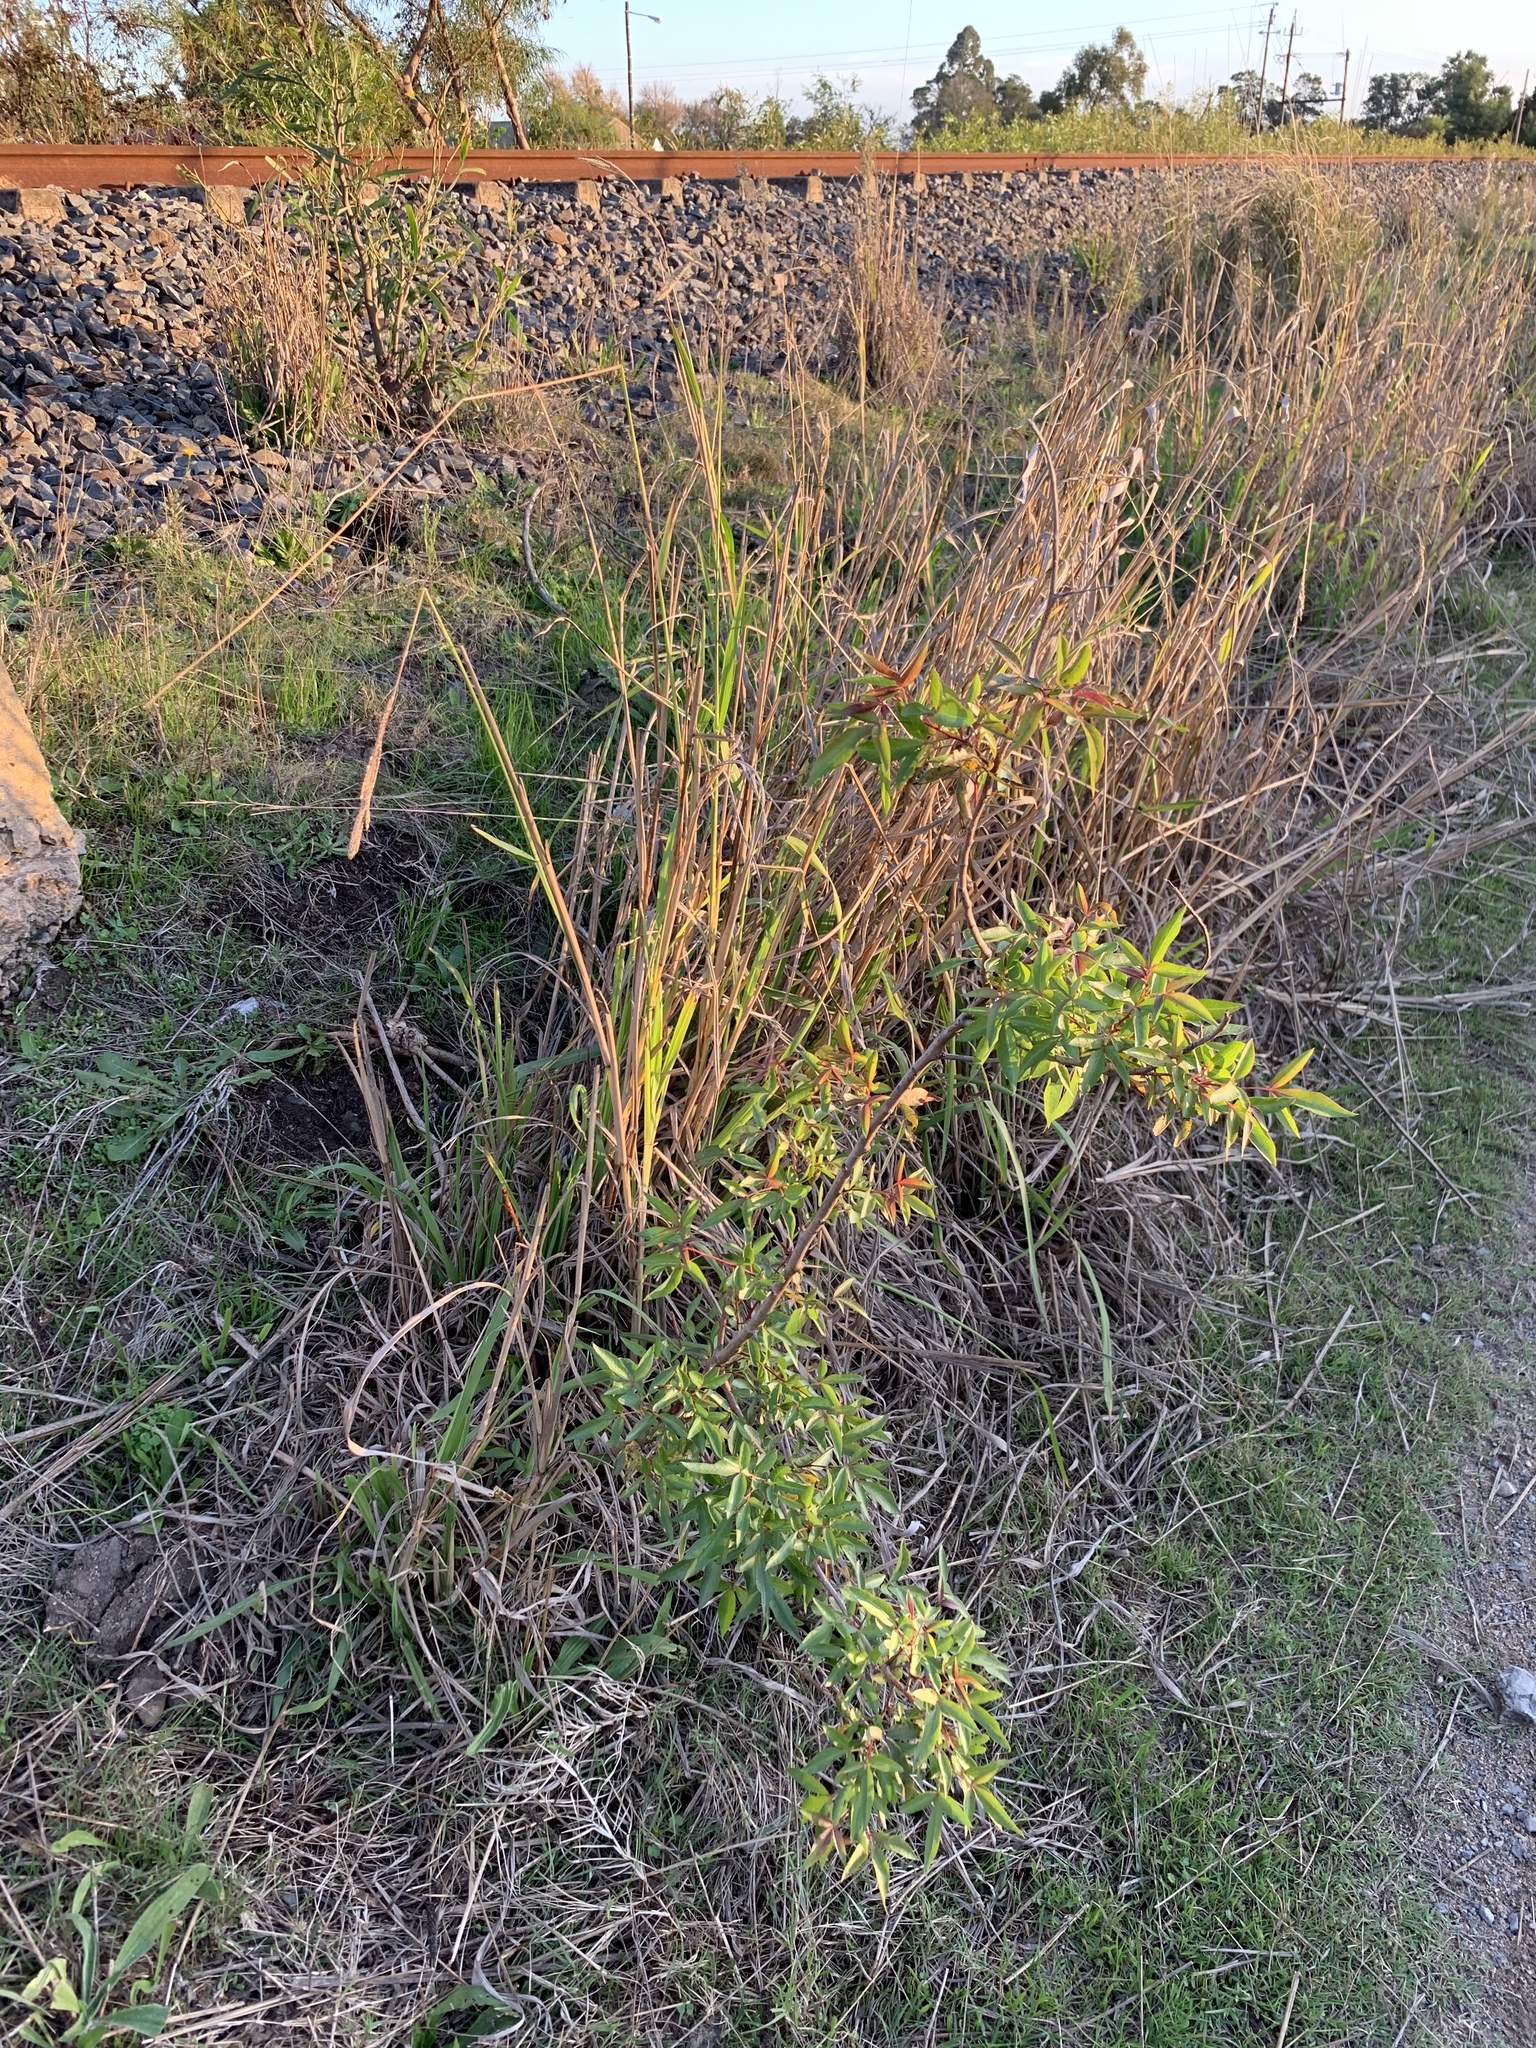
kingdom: Plantae
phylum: Tracheophyta
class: Magnoliopsida
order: Sapindales
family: Anacardiaceae
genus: Searsia
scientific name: Searsia pendulina
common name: White karee
